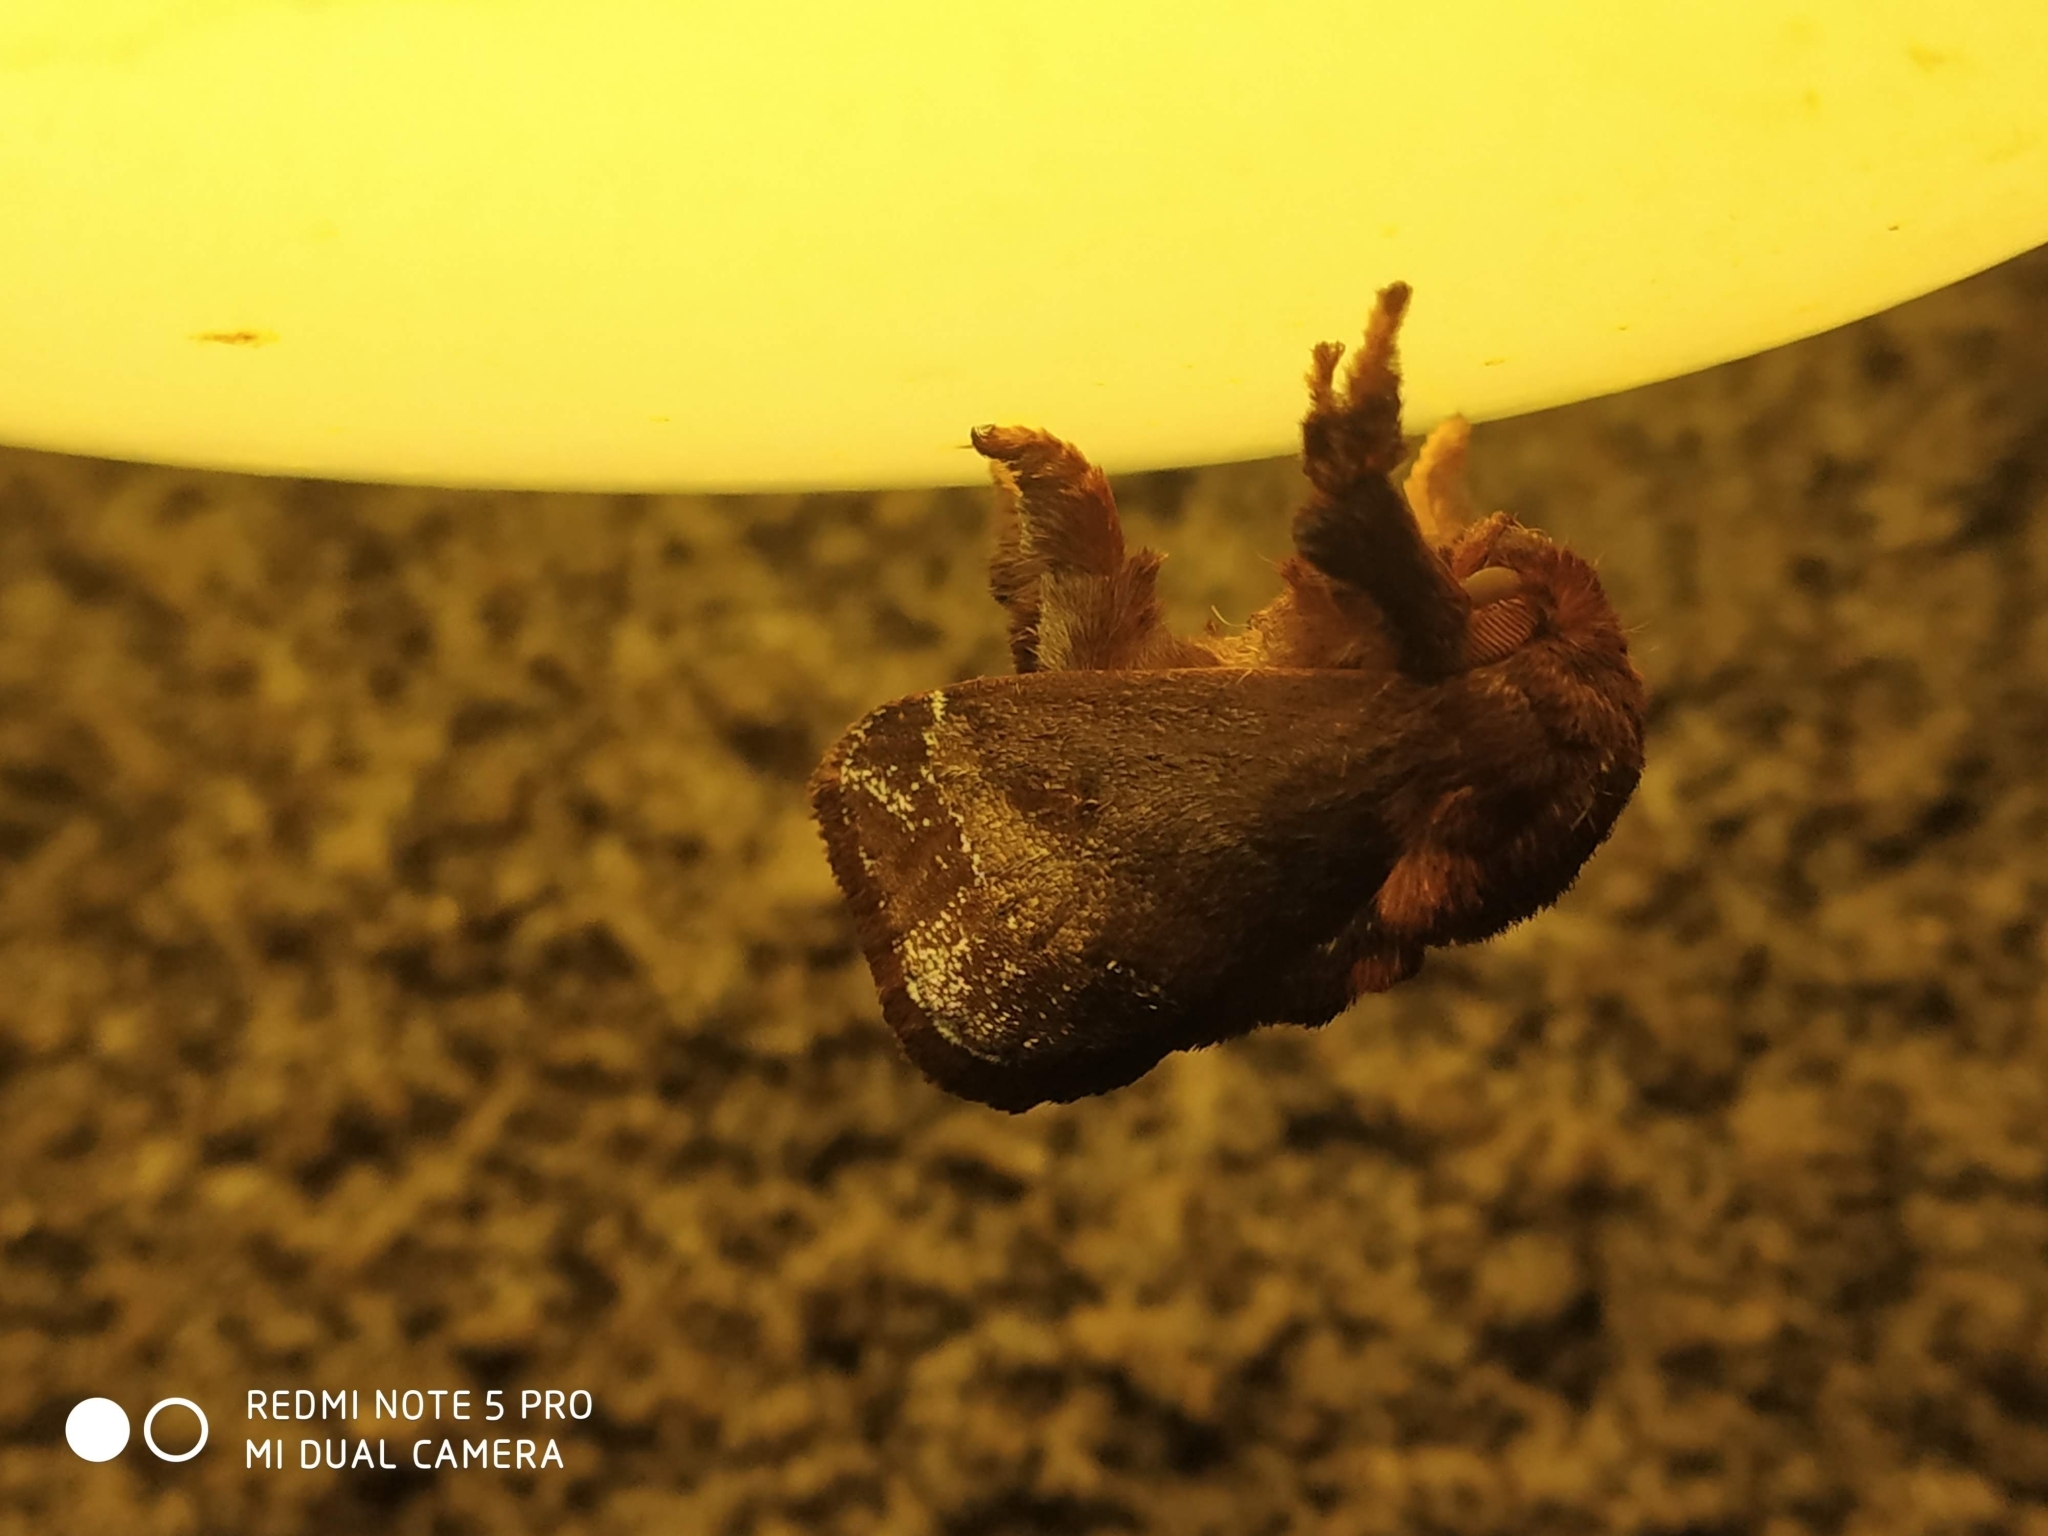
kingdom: Animalia
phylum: Arthropoda
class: Insecta
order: Lepidoptera
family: Limacodidae
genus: Miresa
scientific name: Miresa argentifera
